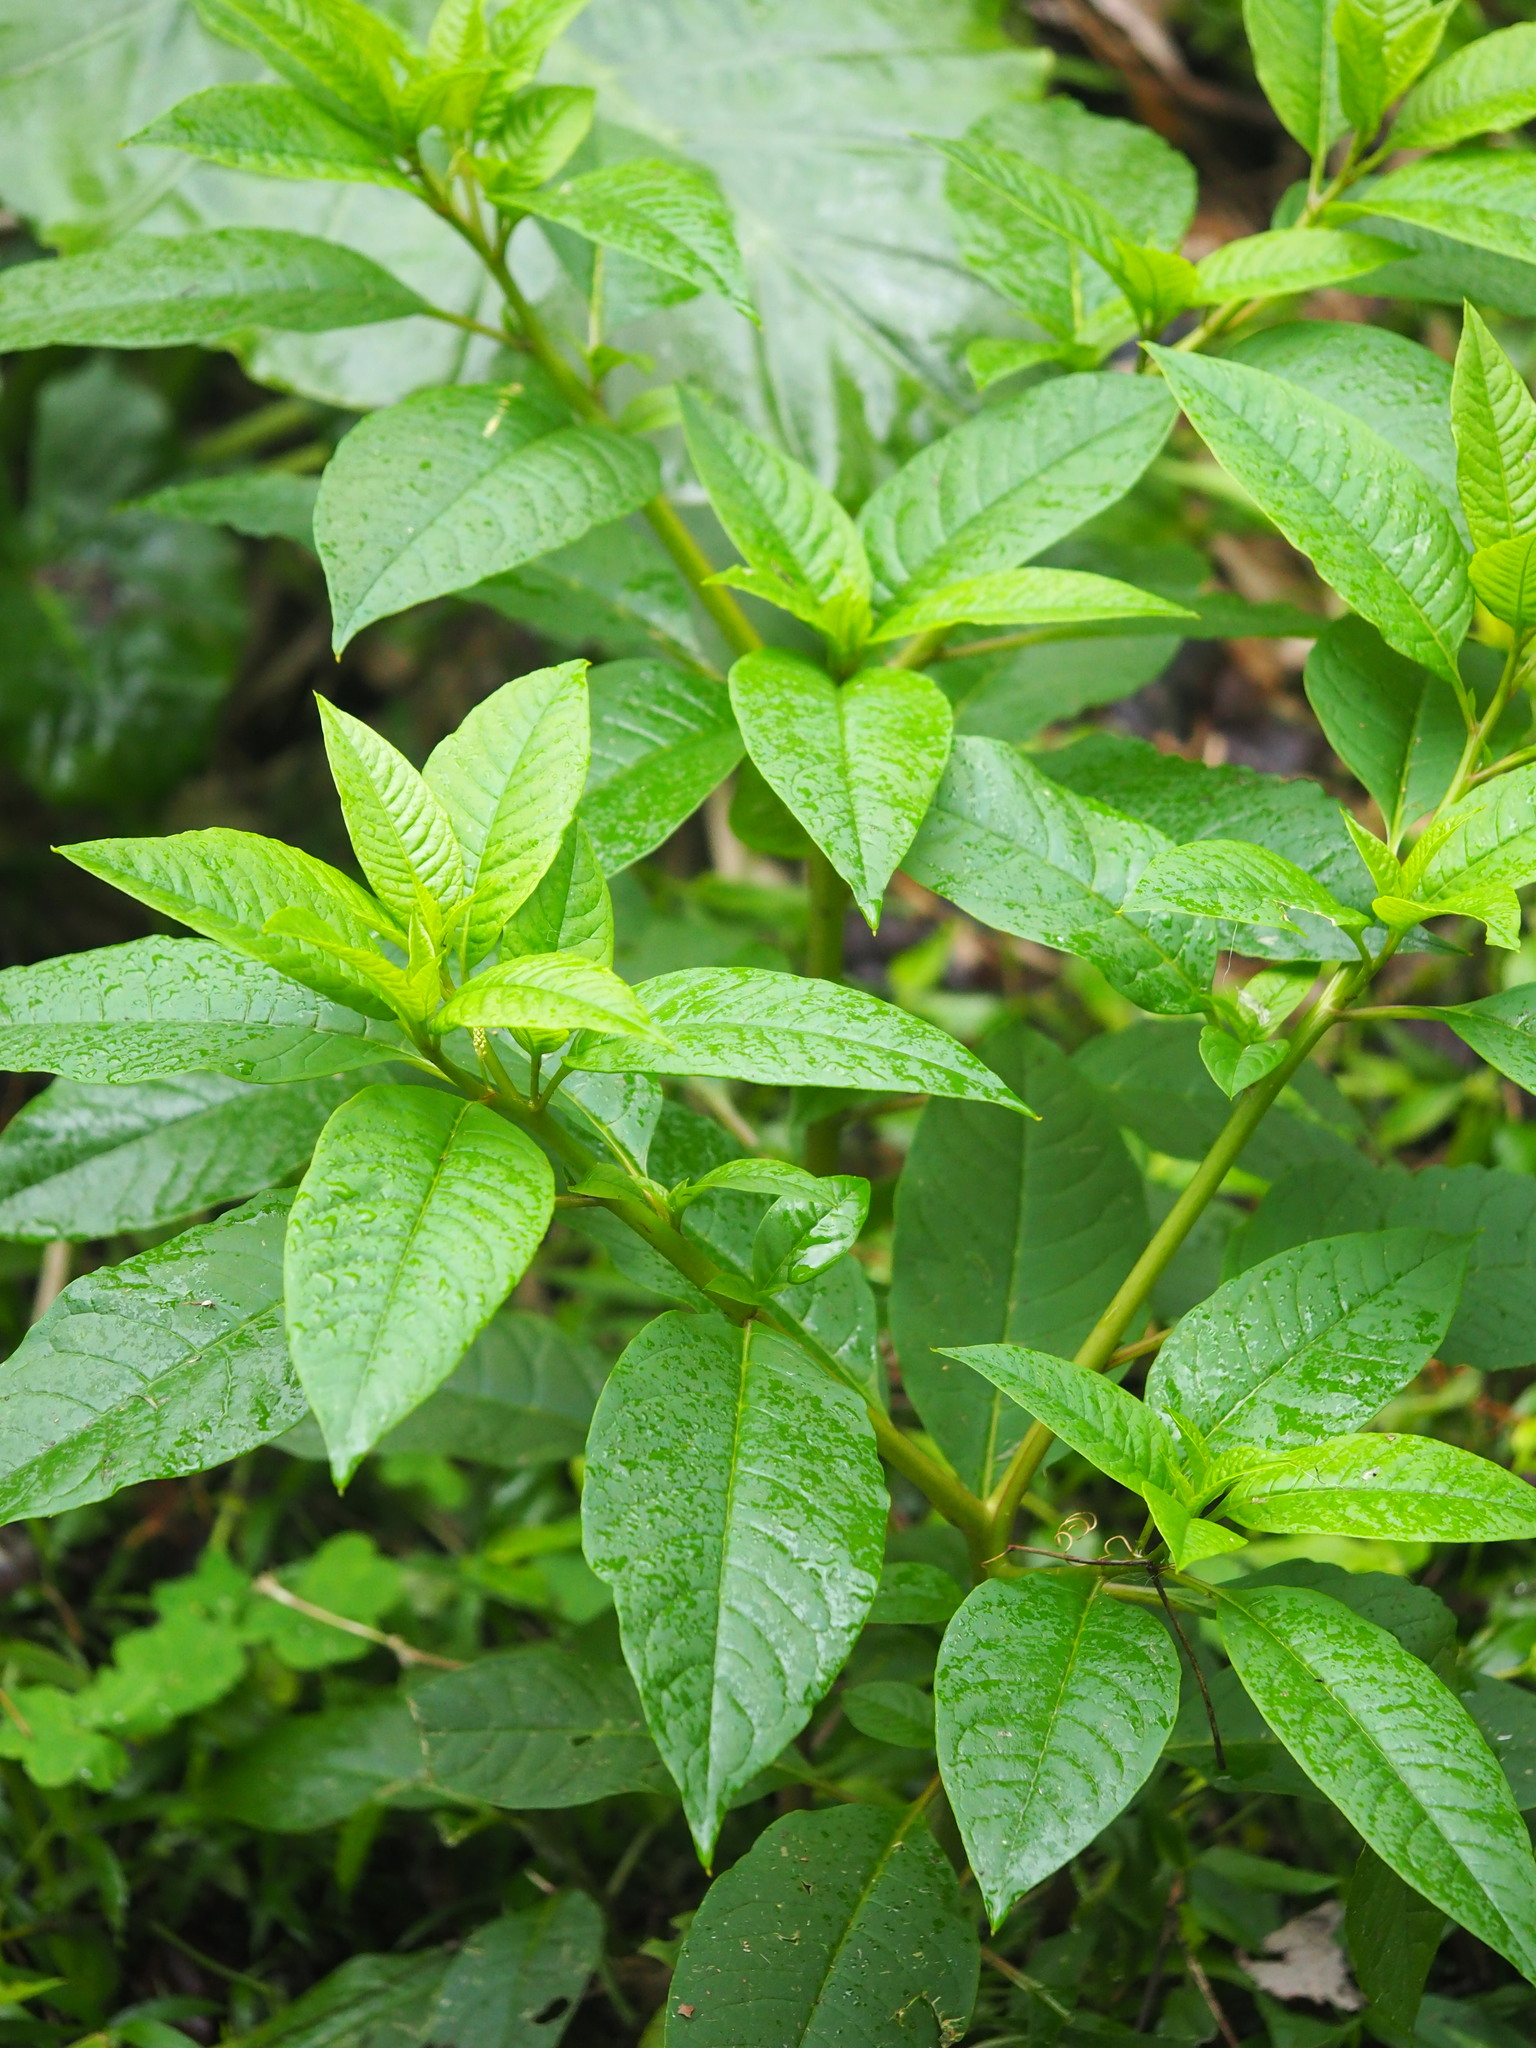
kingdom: Plantae
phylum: Tracheophyta
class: Magnoliopsida
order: Caryophyllales
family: Phytolaccaceae
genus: Phytolacca
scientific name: Phytolacca americana
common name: American pokeweed
